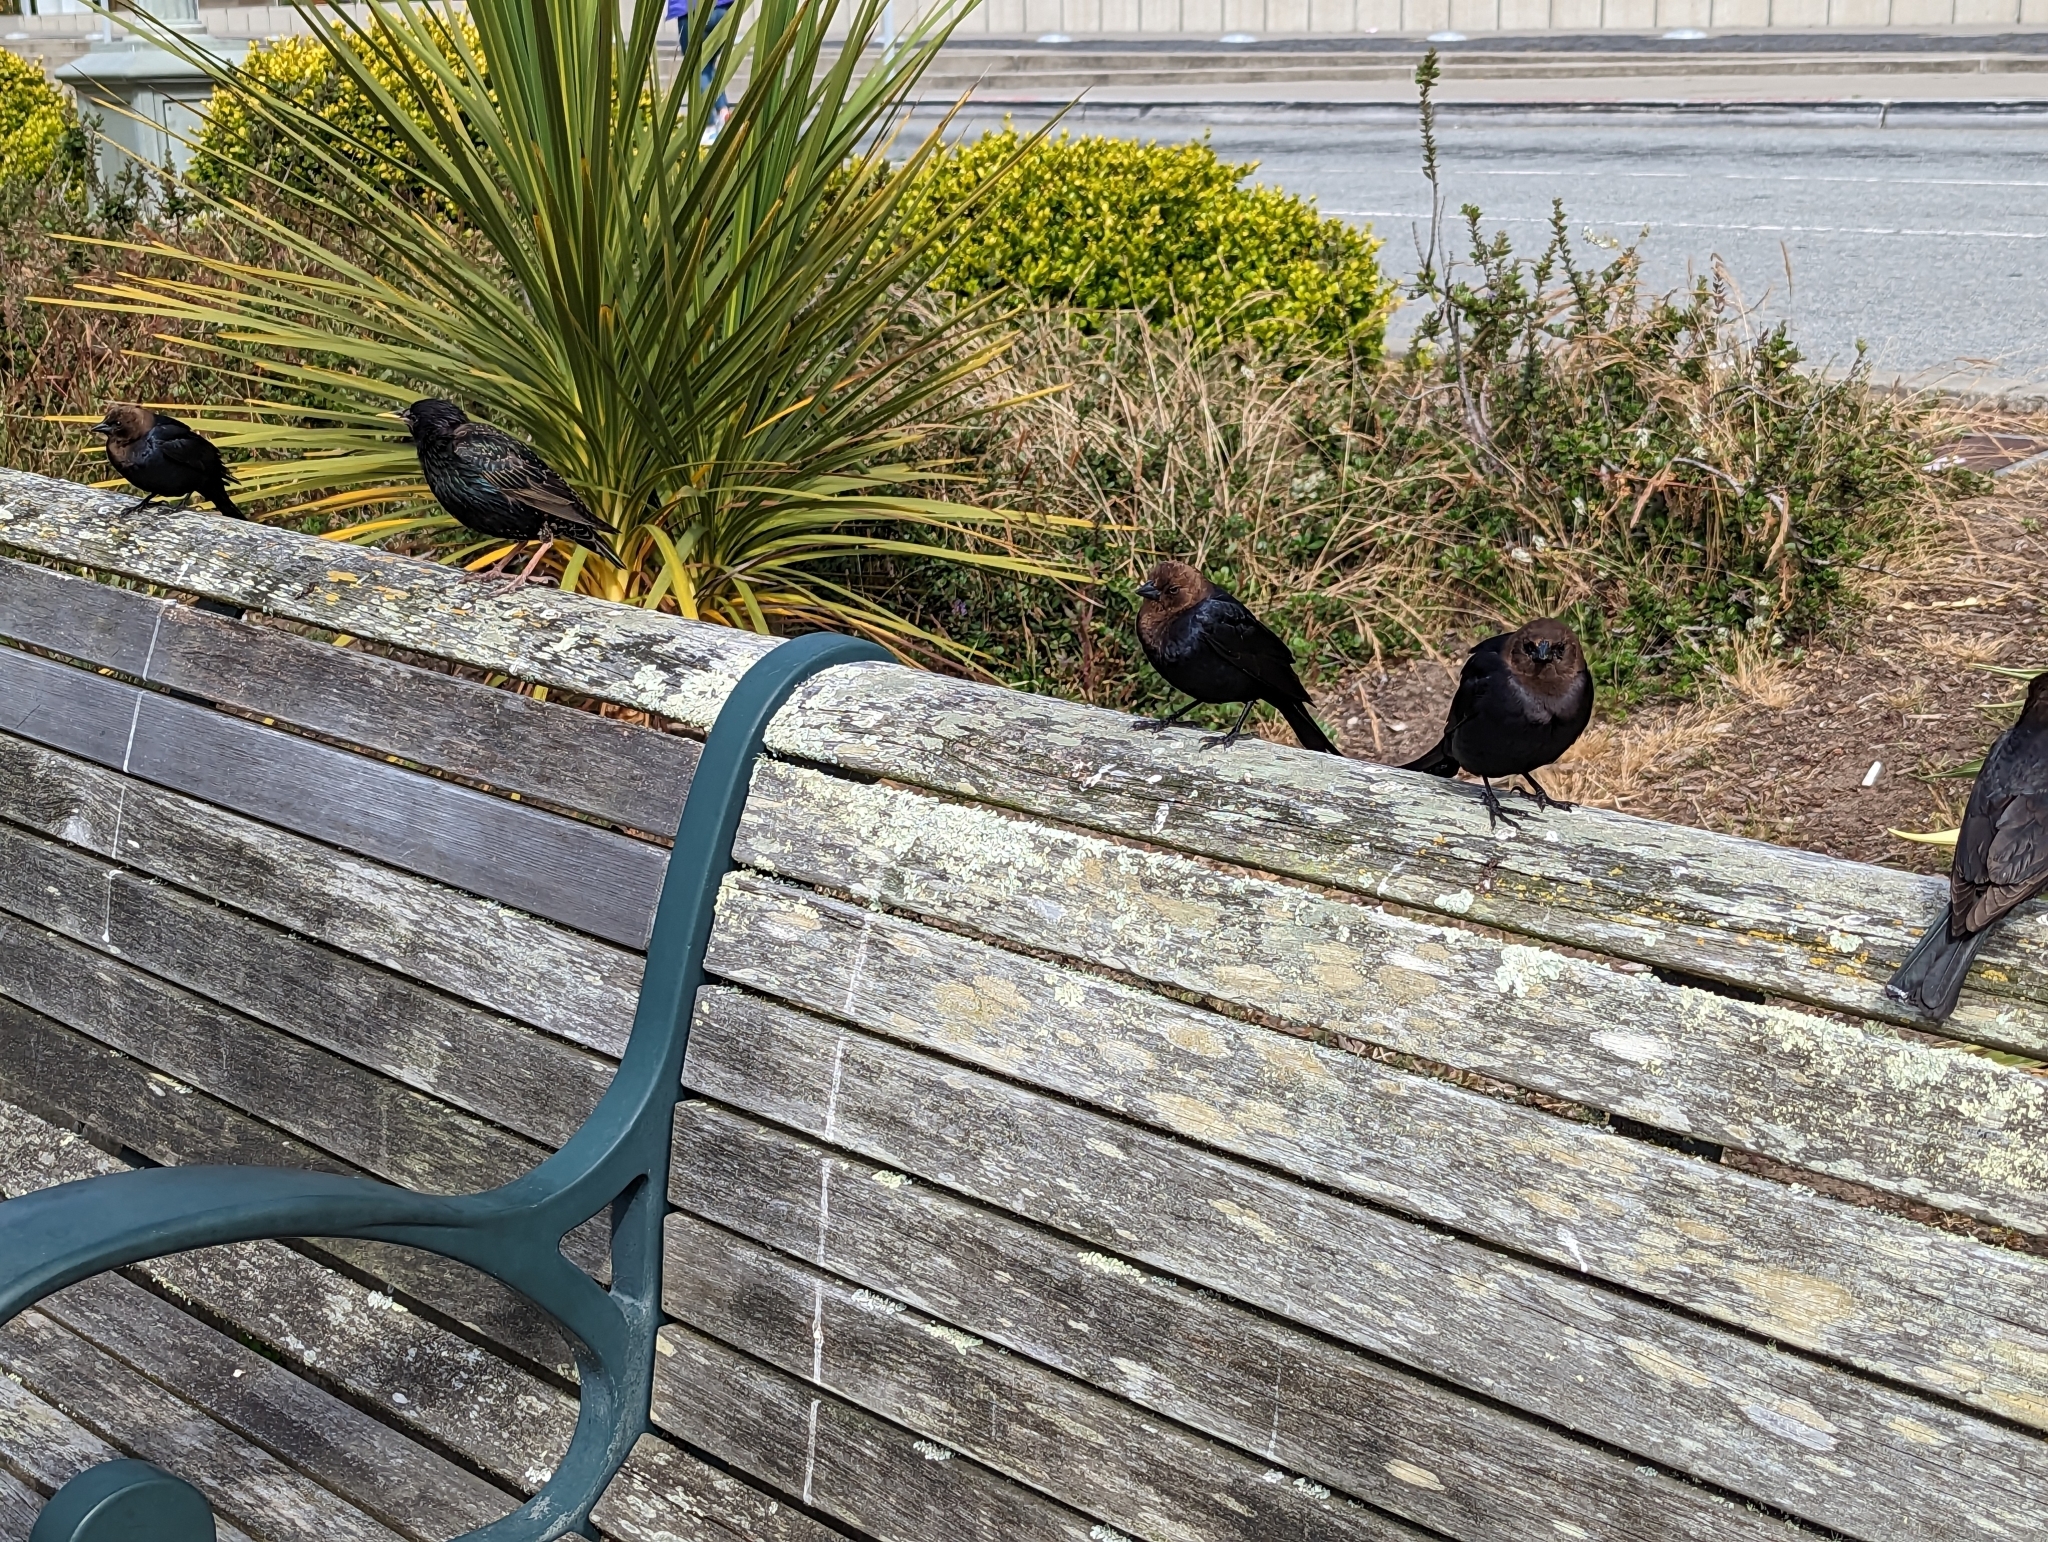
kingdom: Animalia
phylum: Chordata
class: Aves
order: Passeriformes
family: Sturnidae
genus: Sturnus
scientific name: Sturnus vulgaris
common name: Common starling
